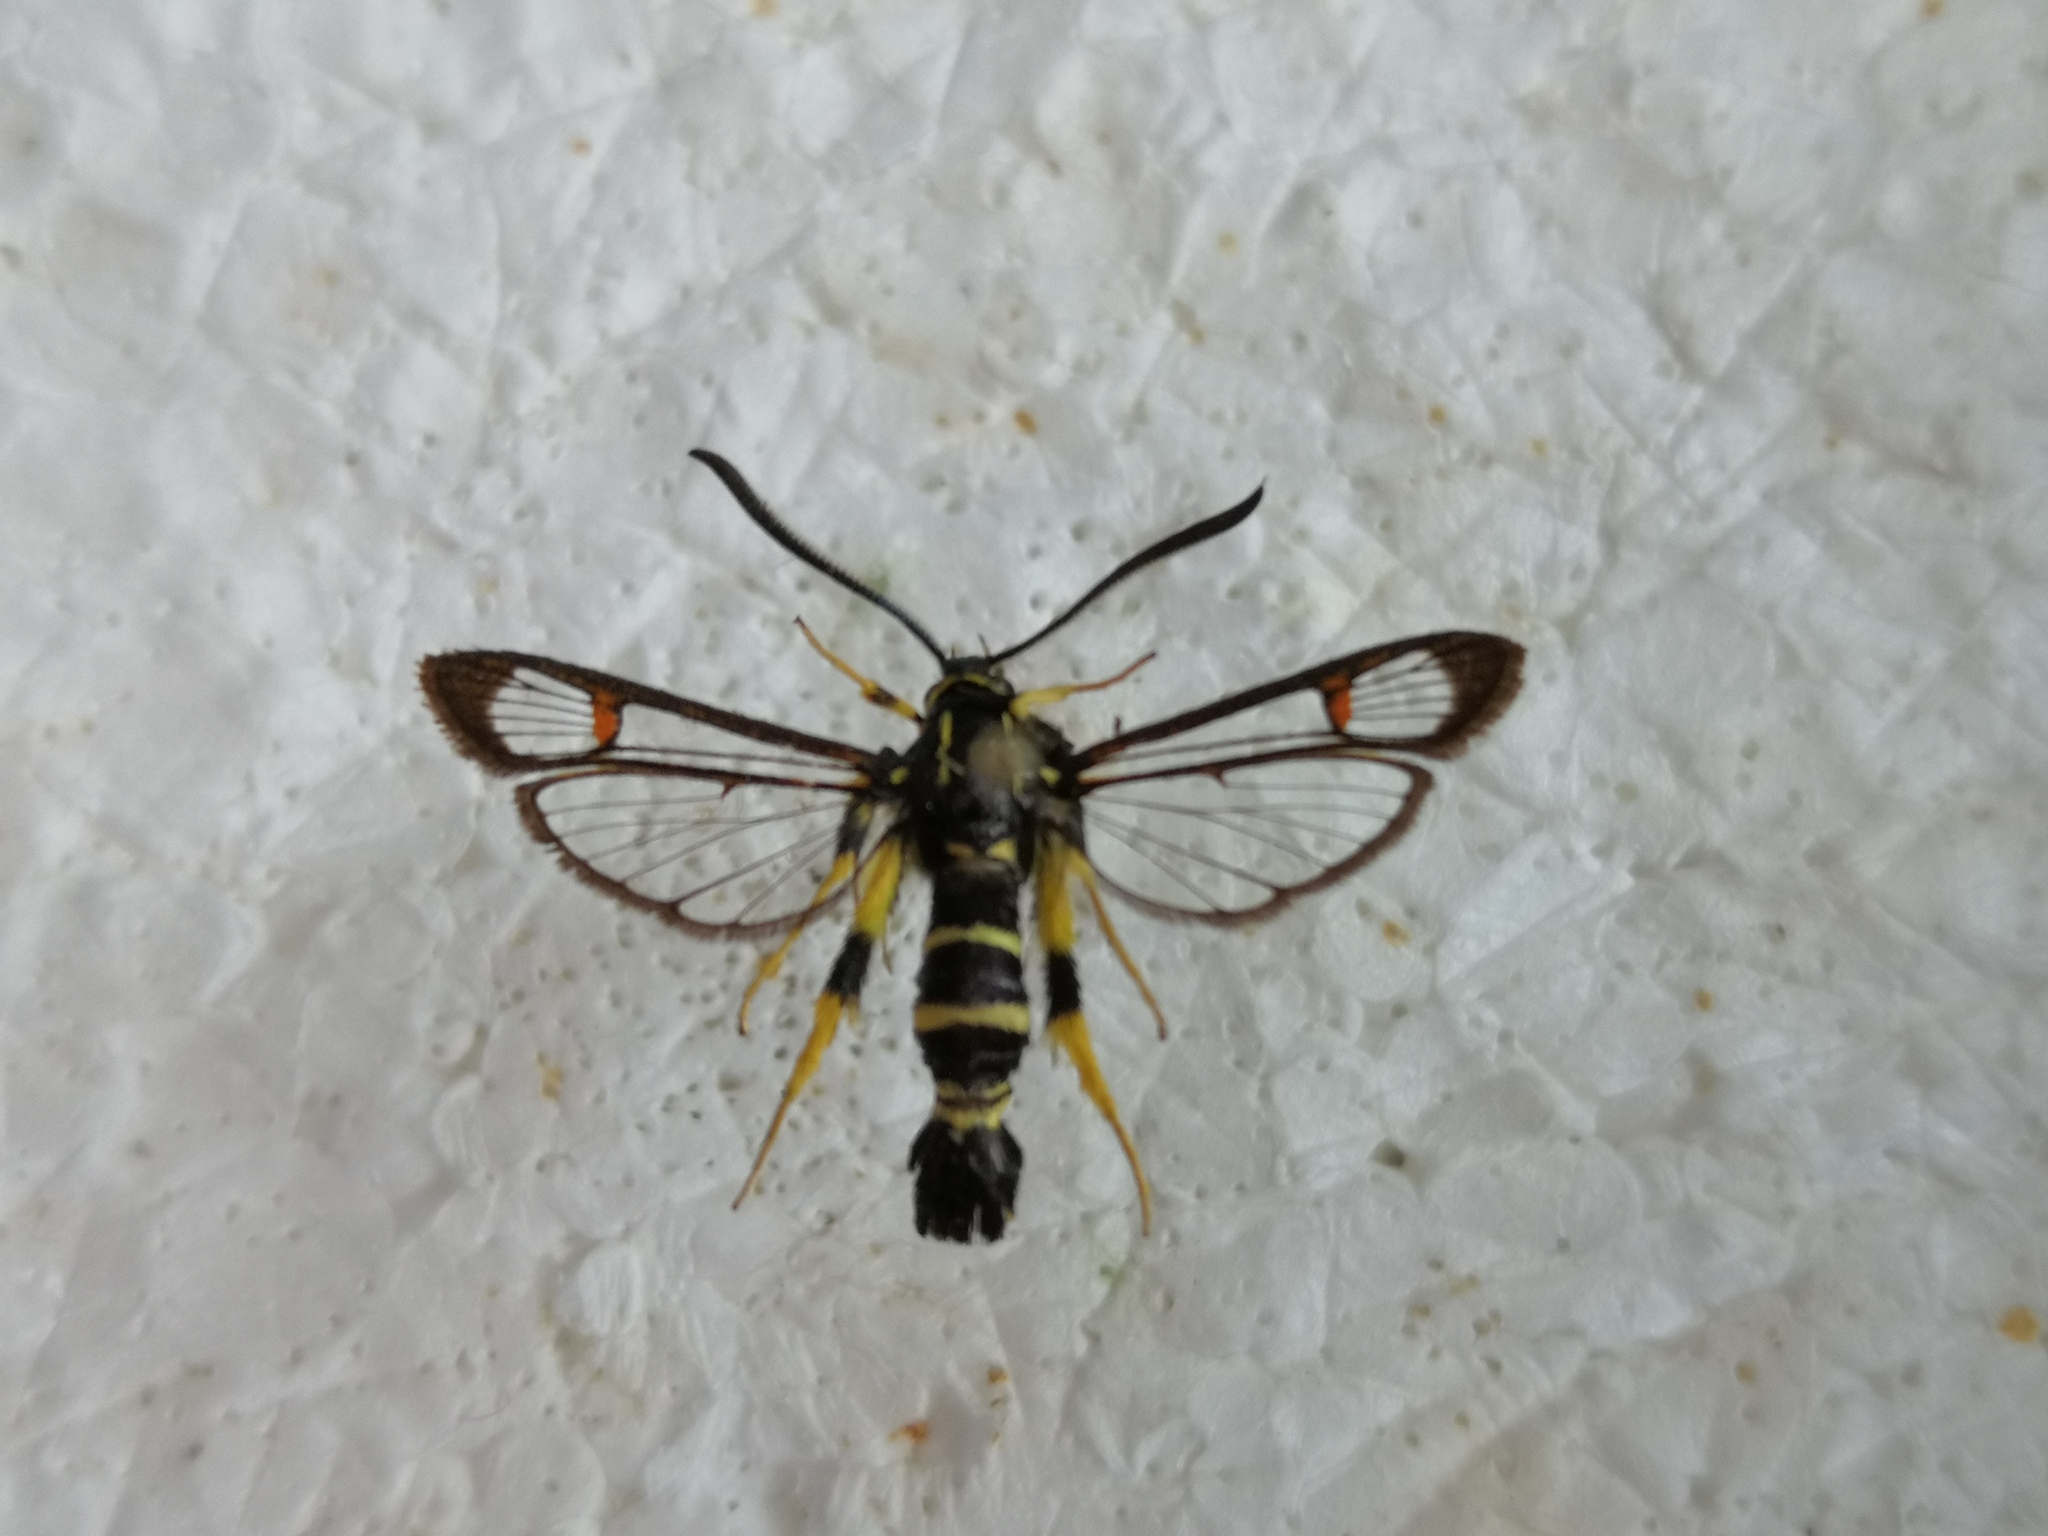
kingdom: Animalia
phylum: Arthropoda
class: Insecta
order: Lepidoptera
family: Sesiidae
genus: Synanthedon
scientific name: Synanthedon vespiformis
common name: Yellow-legged clearwing
